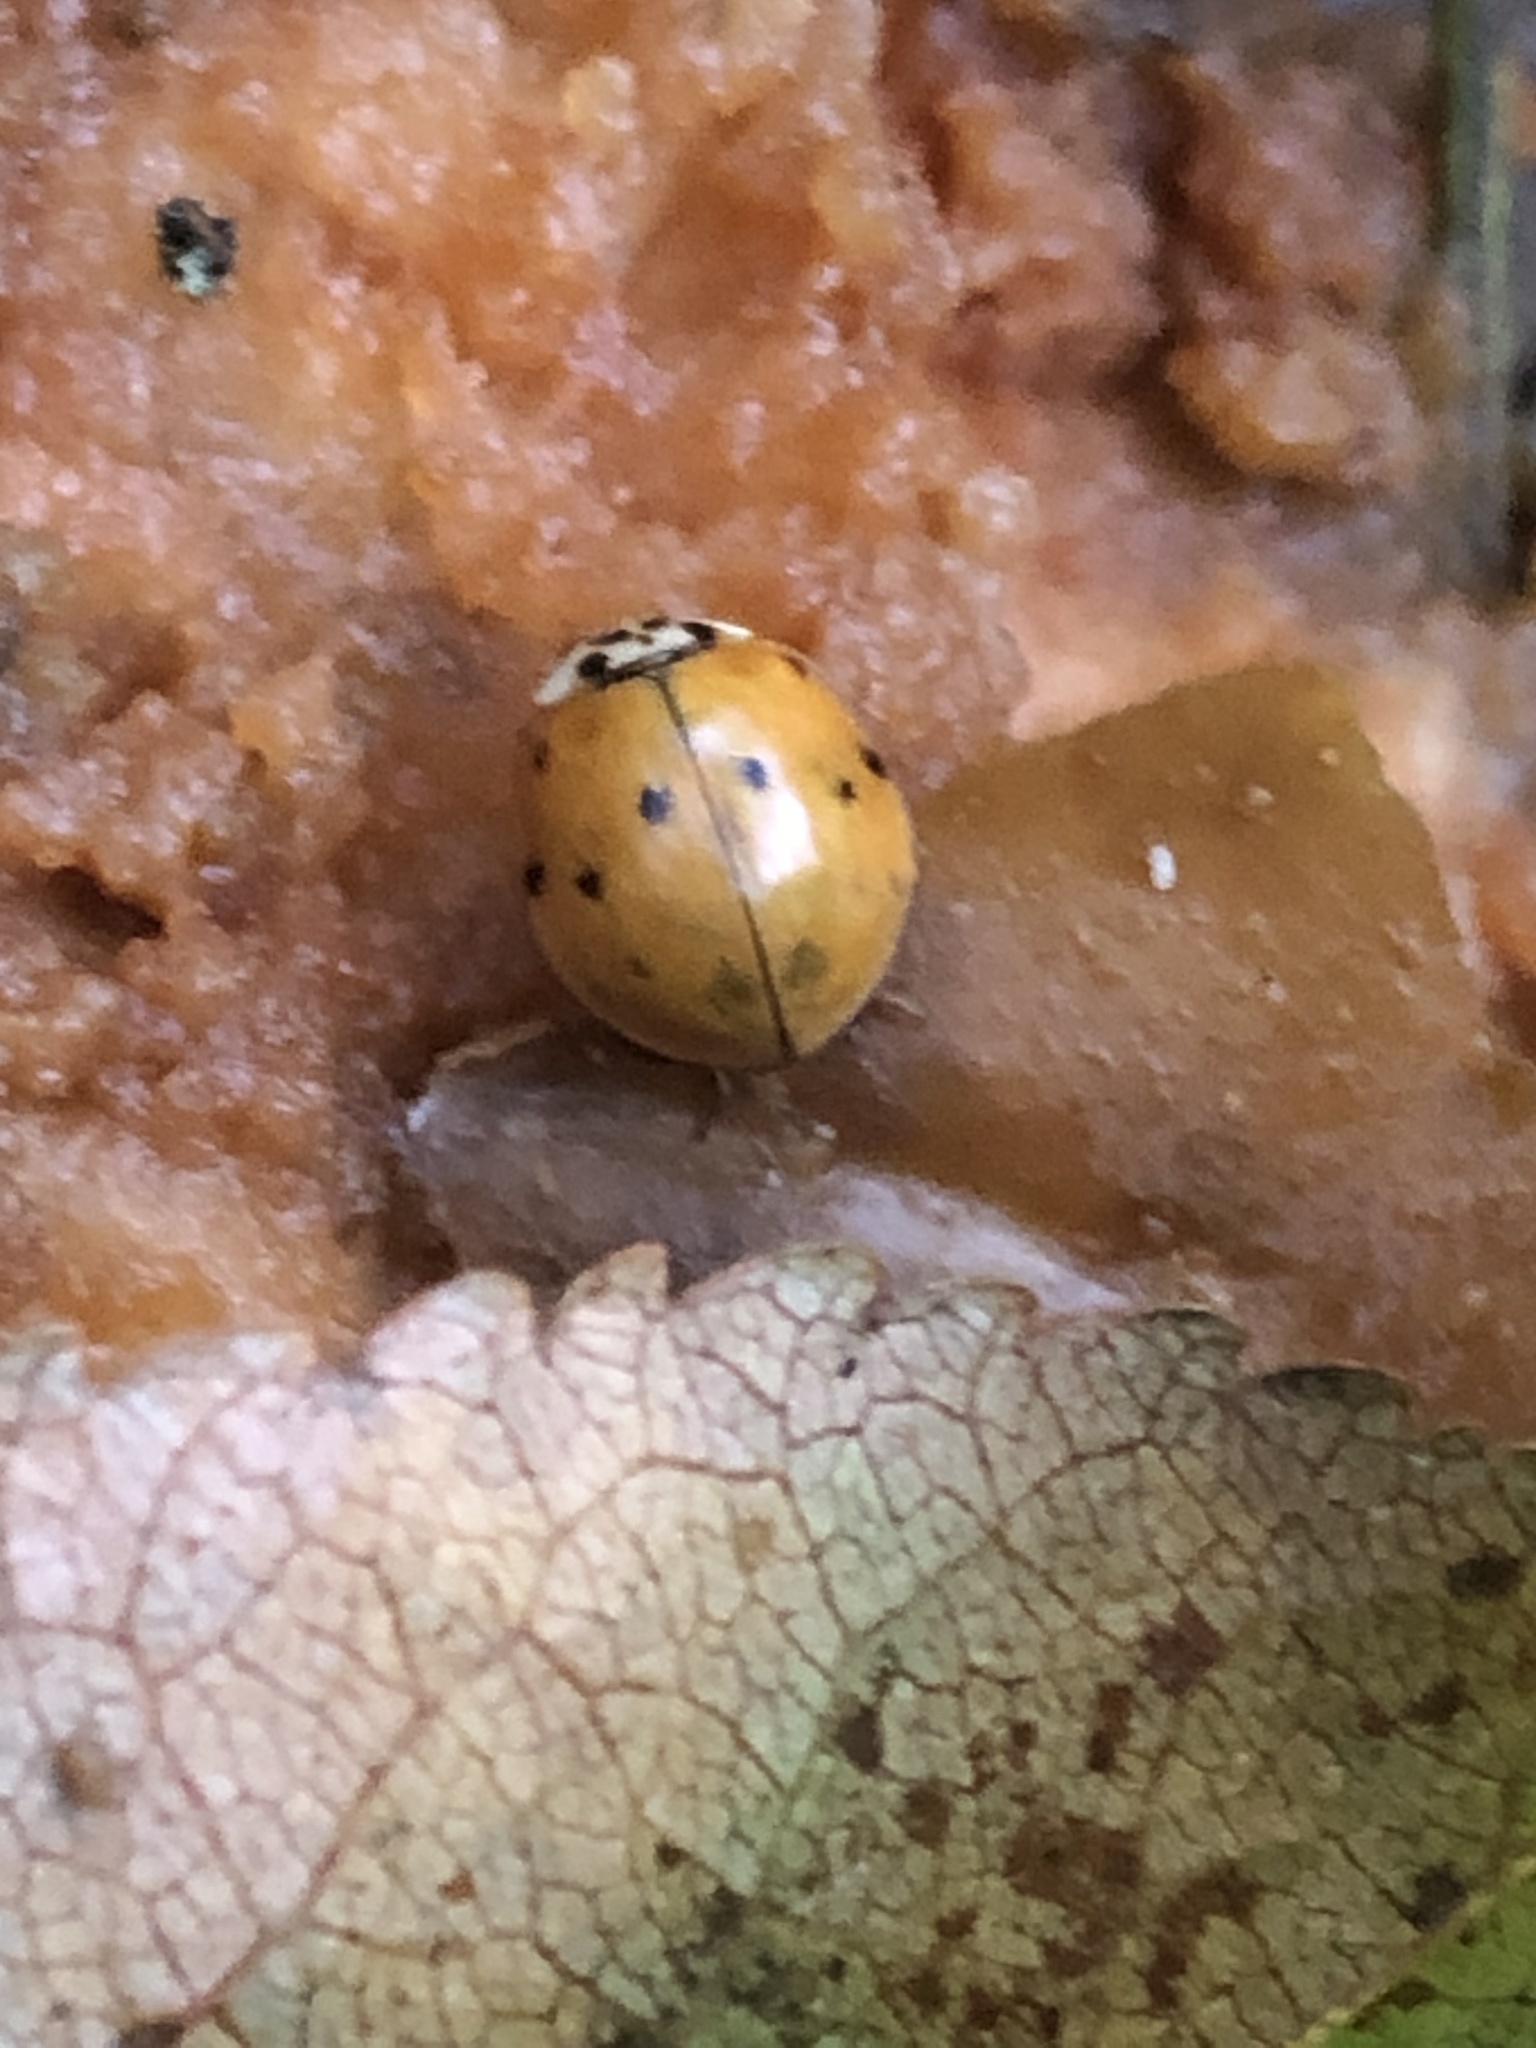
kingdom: Animalia
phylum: Arthropoda
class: Insecta
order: Coleoptera
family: Coccinellidae
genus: Harmonia
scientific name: Harmonia axyridis
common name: Harlequin ladybird
